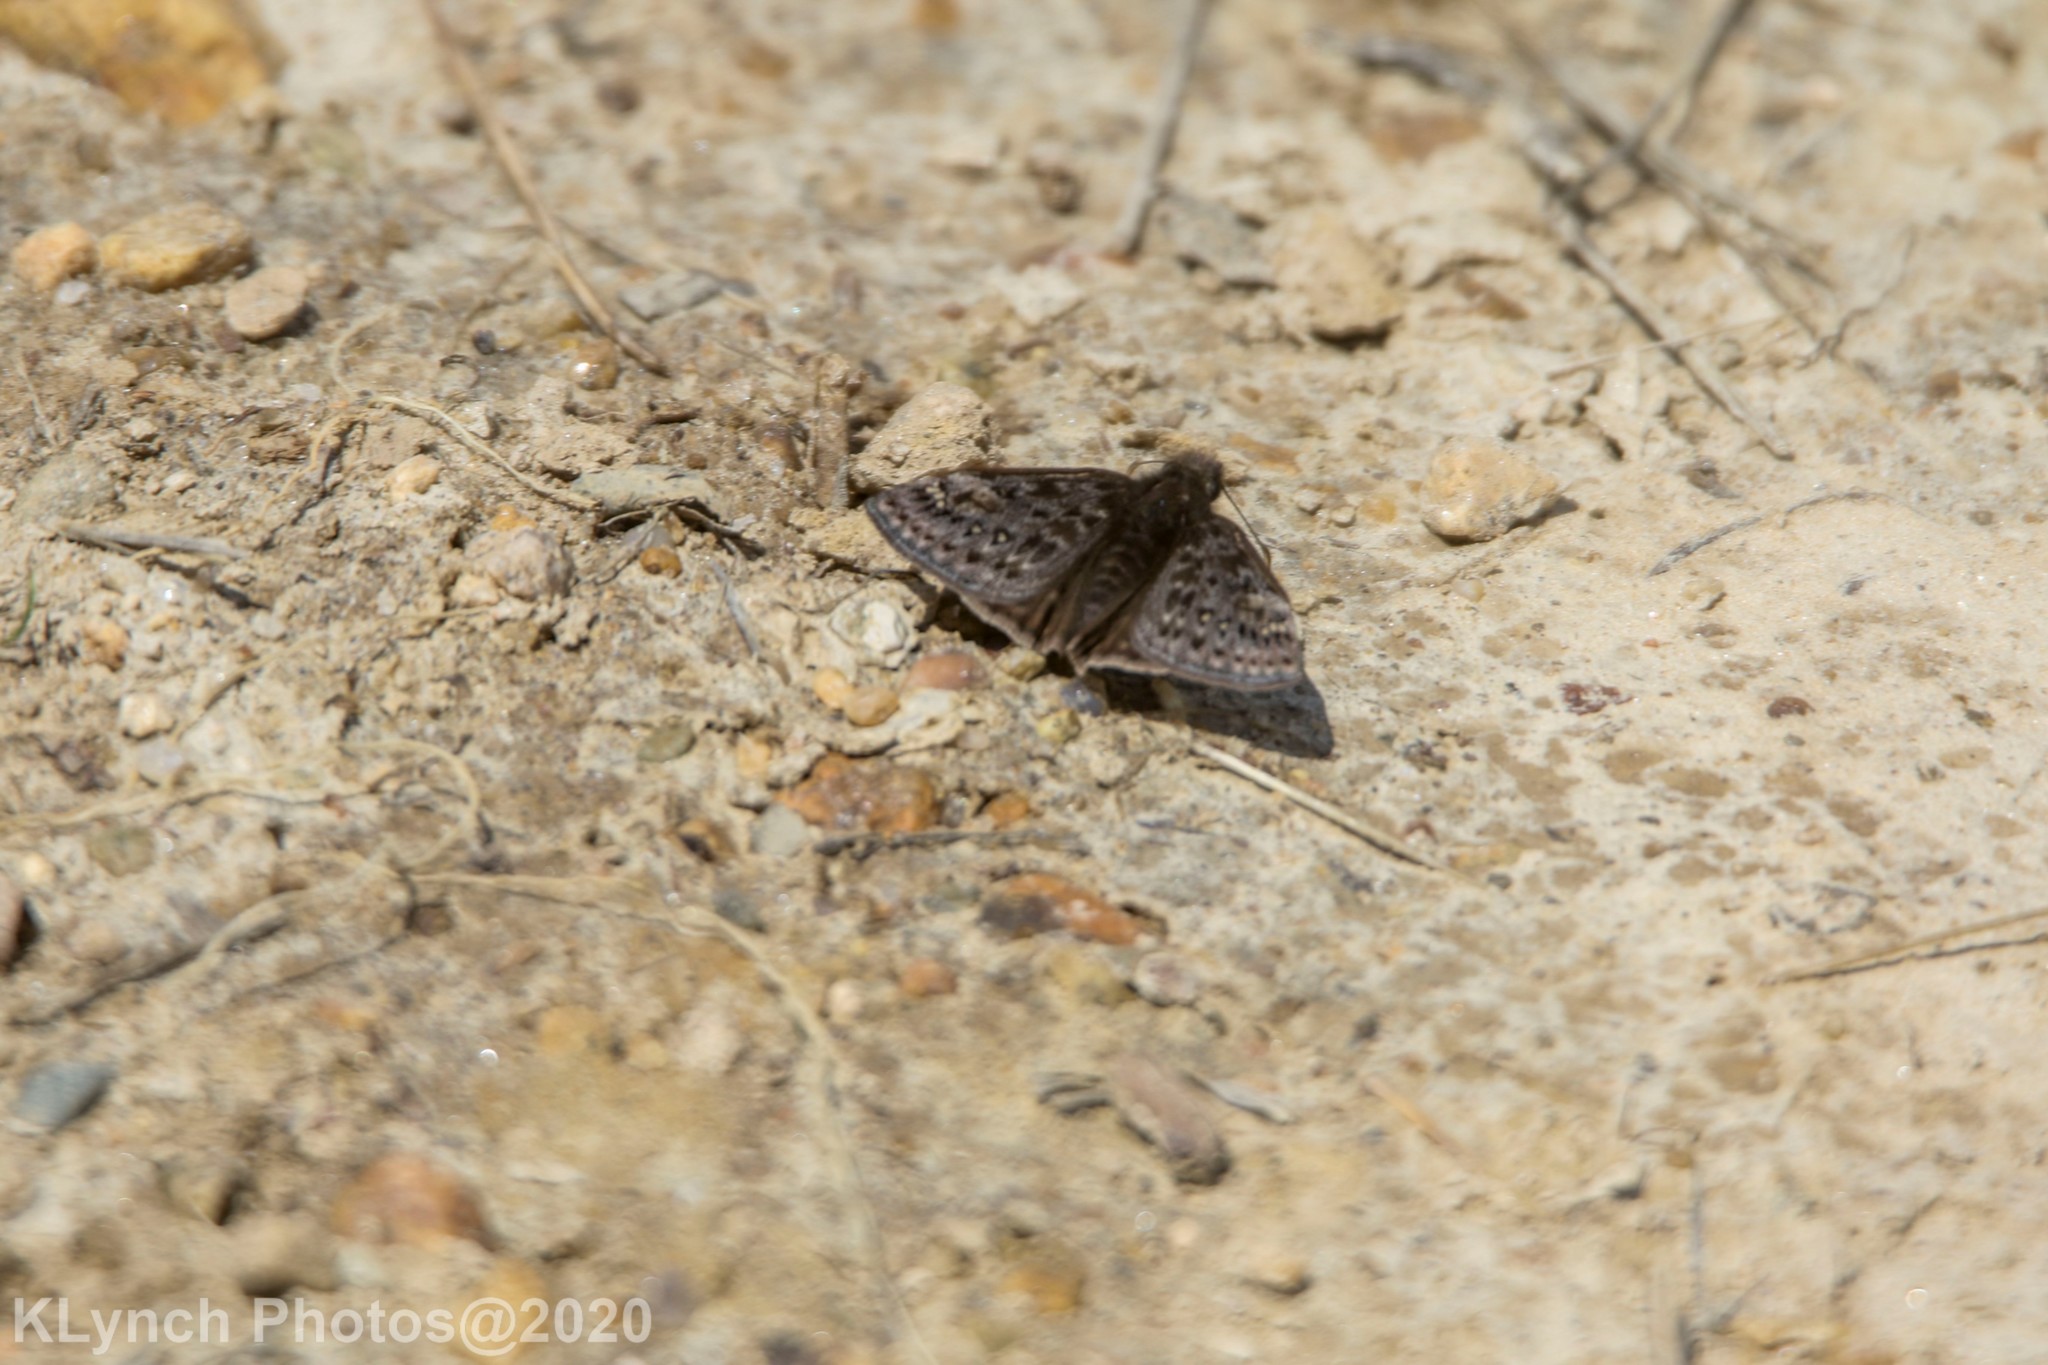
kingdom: Animalia
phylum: Arthropoda
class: Insecta
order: Lepidoptera
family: Hesperiidae
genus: Erynnis
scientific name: Erynnis juvenalis
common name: Juvenal's duskywing
